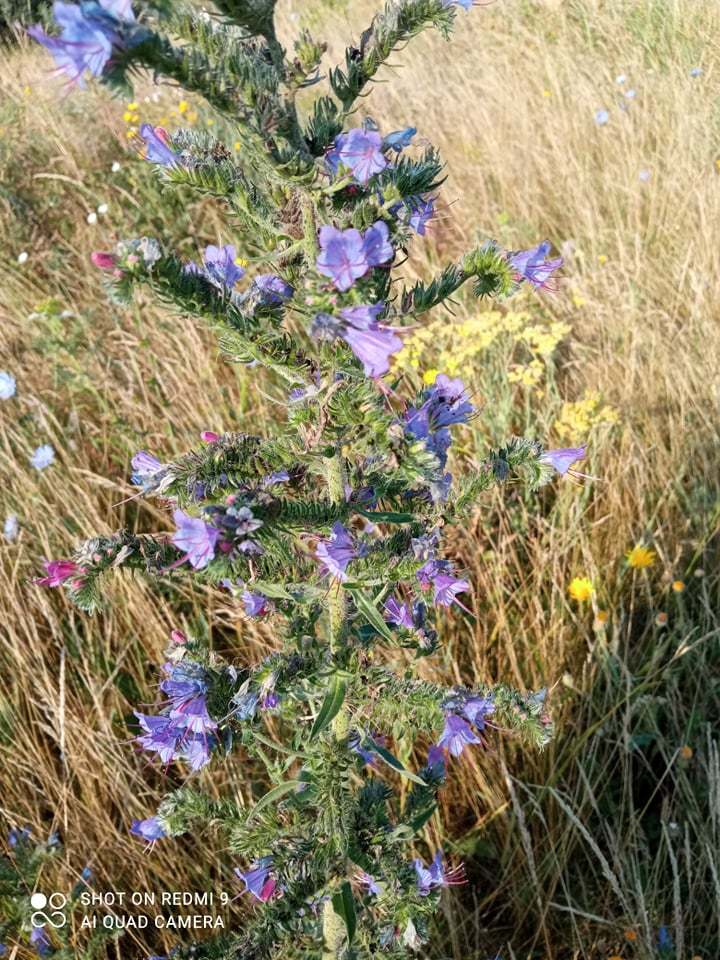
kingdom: Plantae
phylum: Tracheophyta
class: Magnoliopsida
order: Boraginales
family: Boraginaceae
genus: Echium
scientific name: Echium vulgare
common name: Common viper's bugloss
